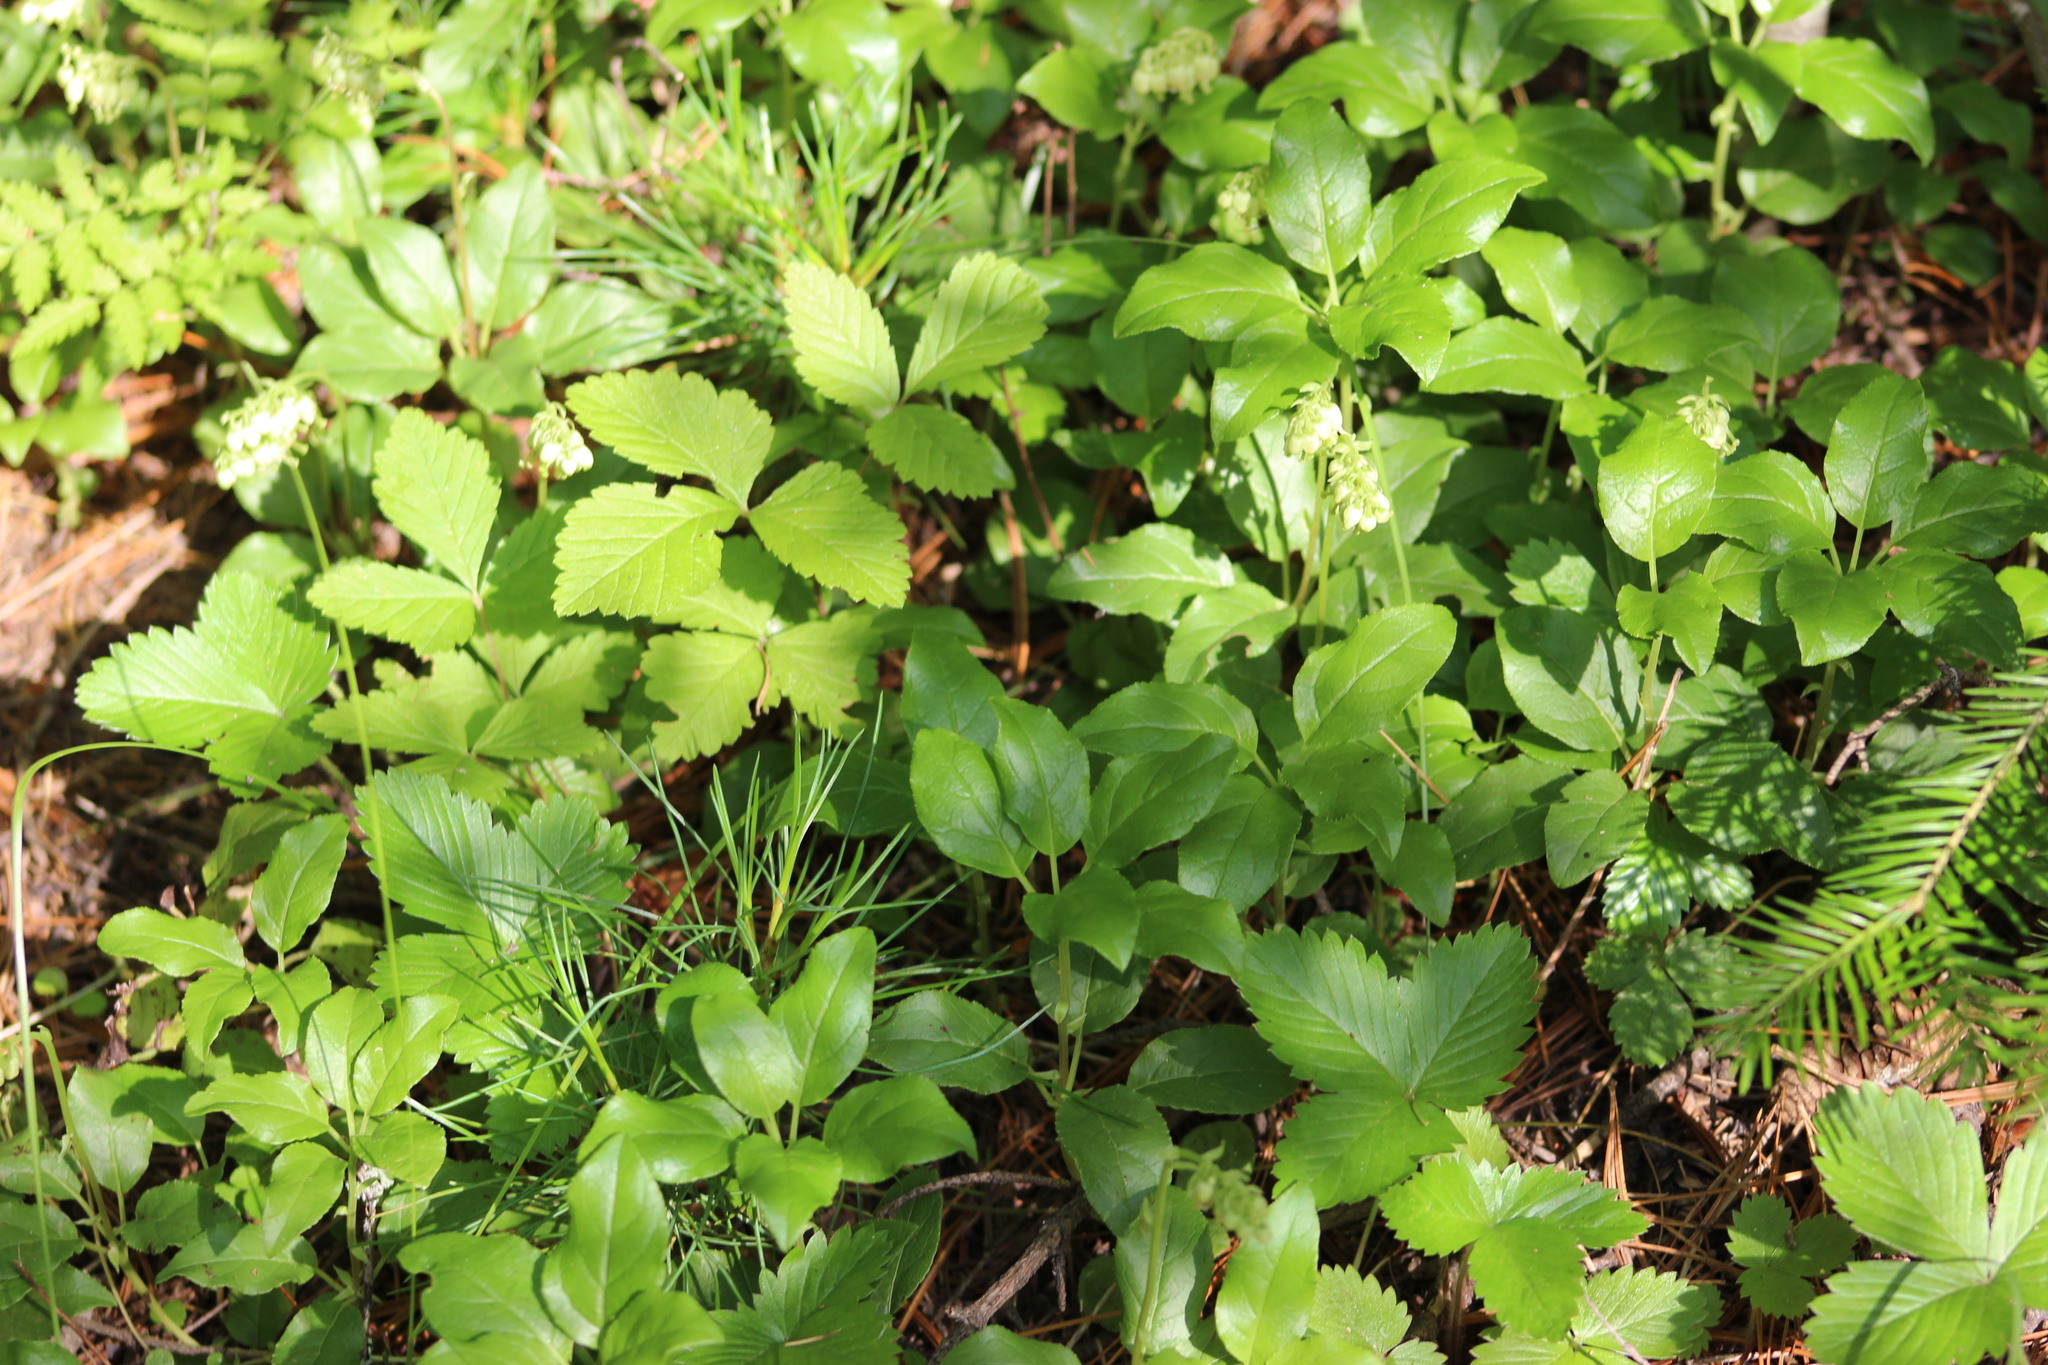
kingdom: Plantae
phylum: Tracheophyta
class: Magnoliopsida
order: Ericales
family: Ericaceae
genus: Orthilia
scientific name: Orthilia secunda
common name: One-sided orthilia
